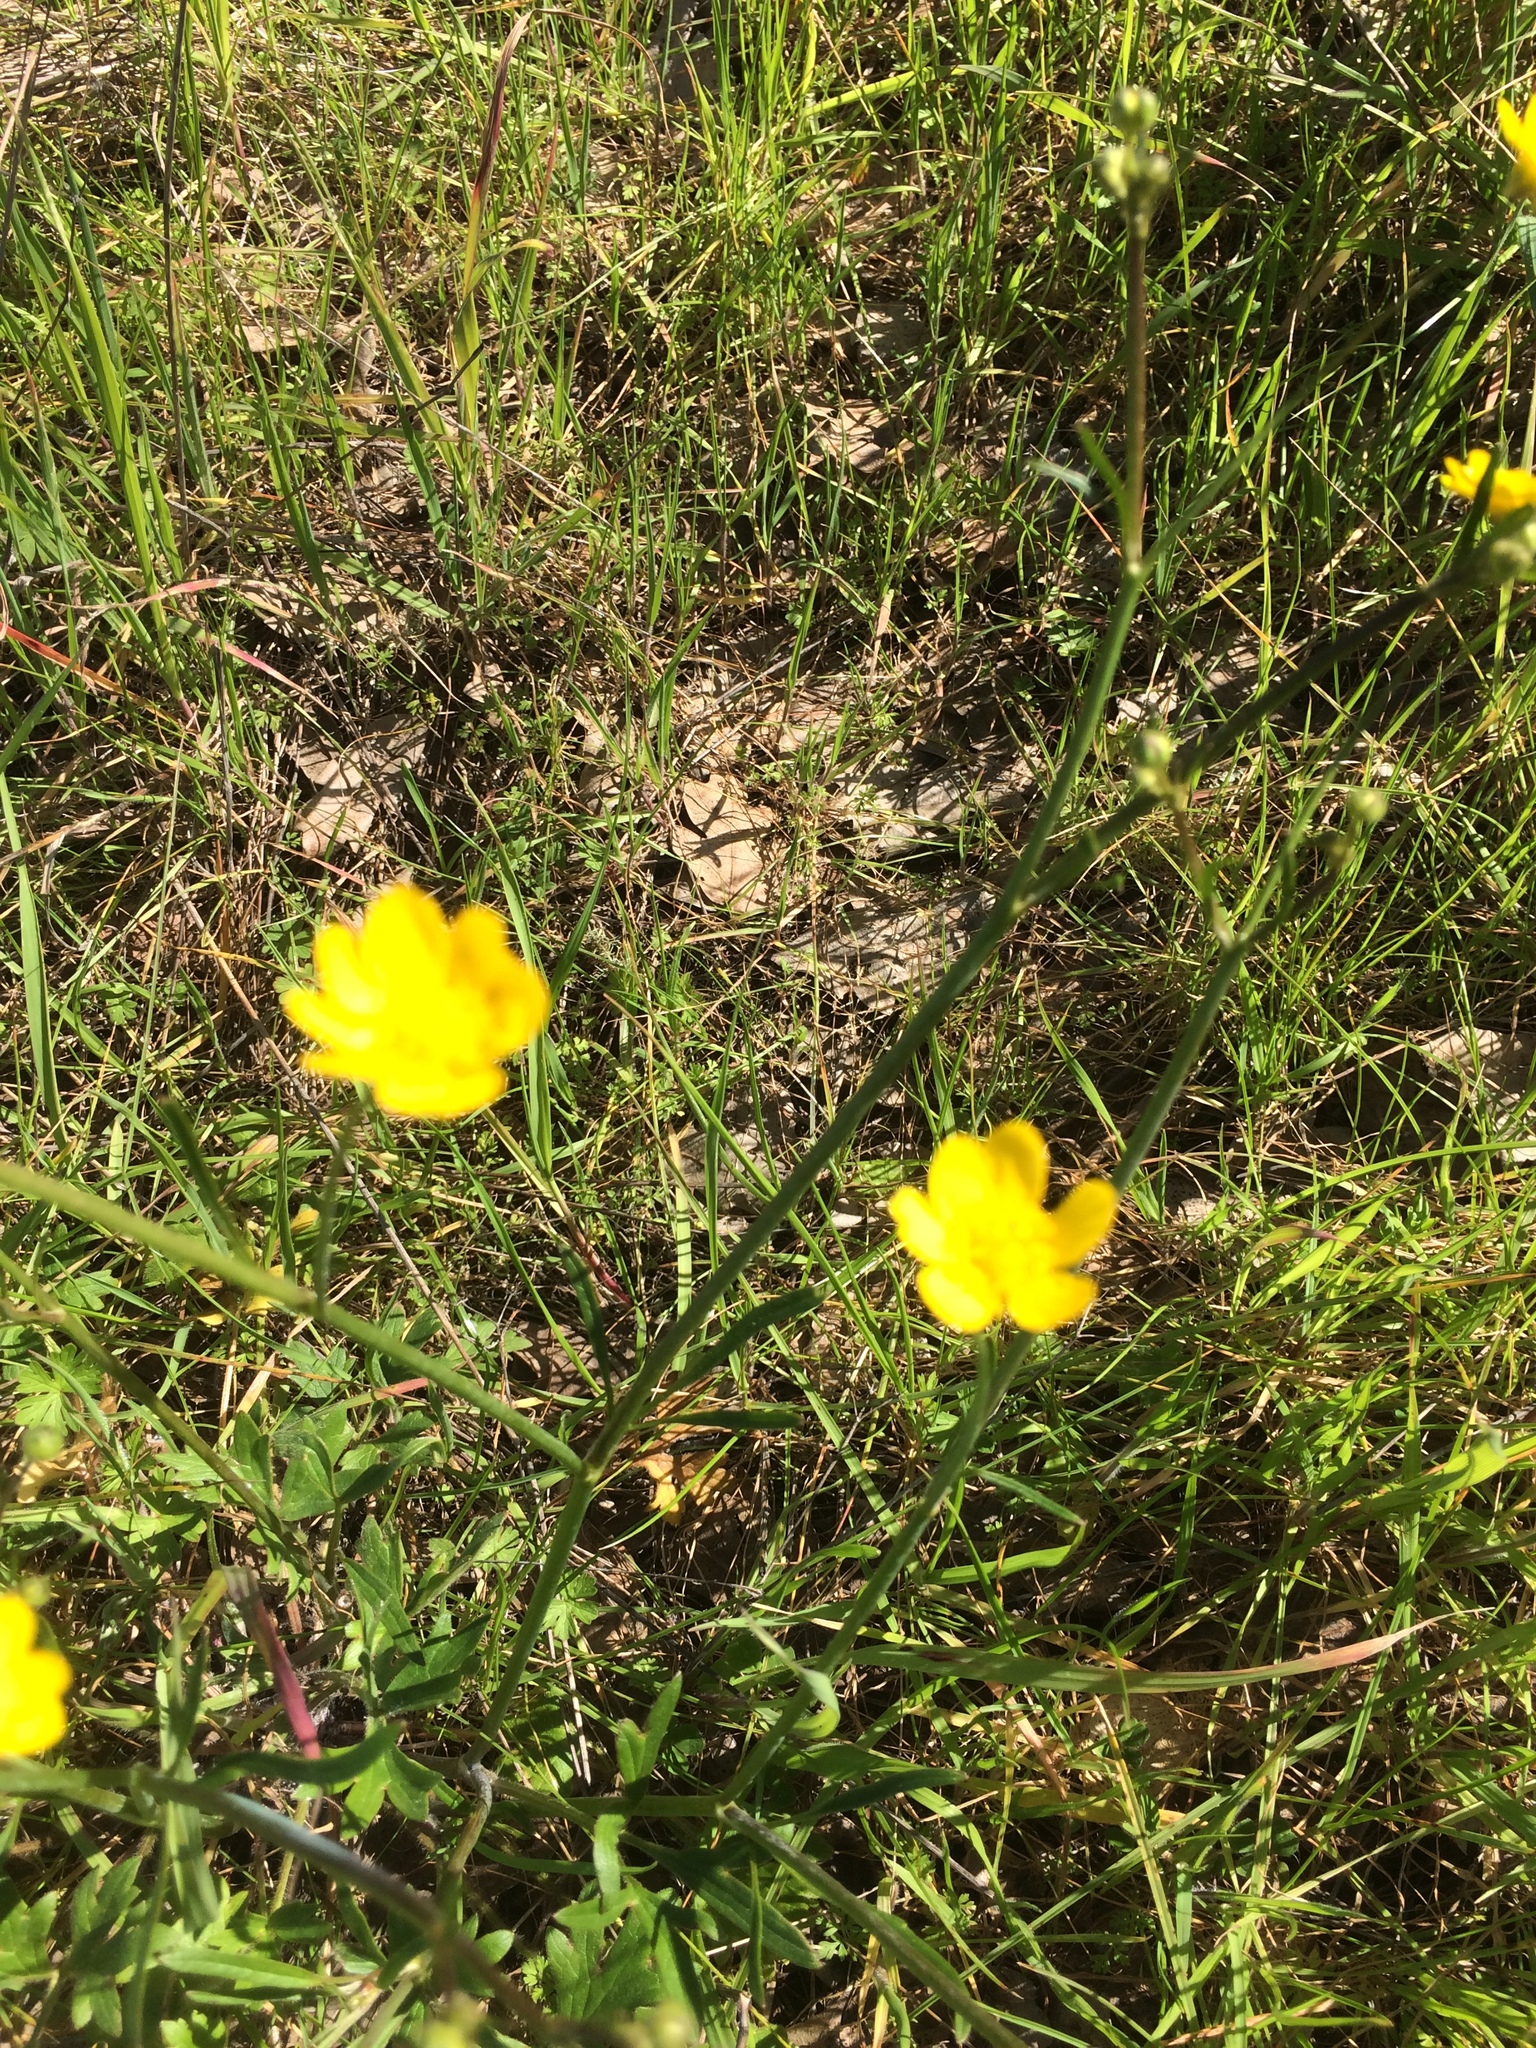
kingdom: Plantae
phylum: Tracheophyta
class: Magnoliopsida
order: Ranunculales
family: Ranunculaceae
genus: Ranunculus
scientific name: Ranunculus californicus
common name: California buttercup
